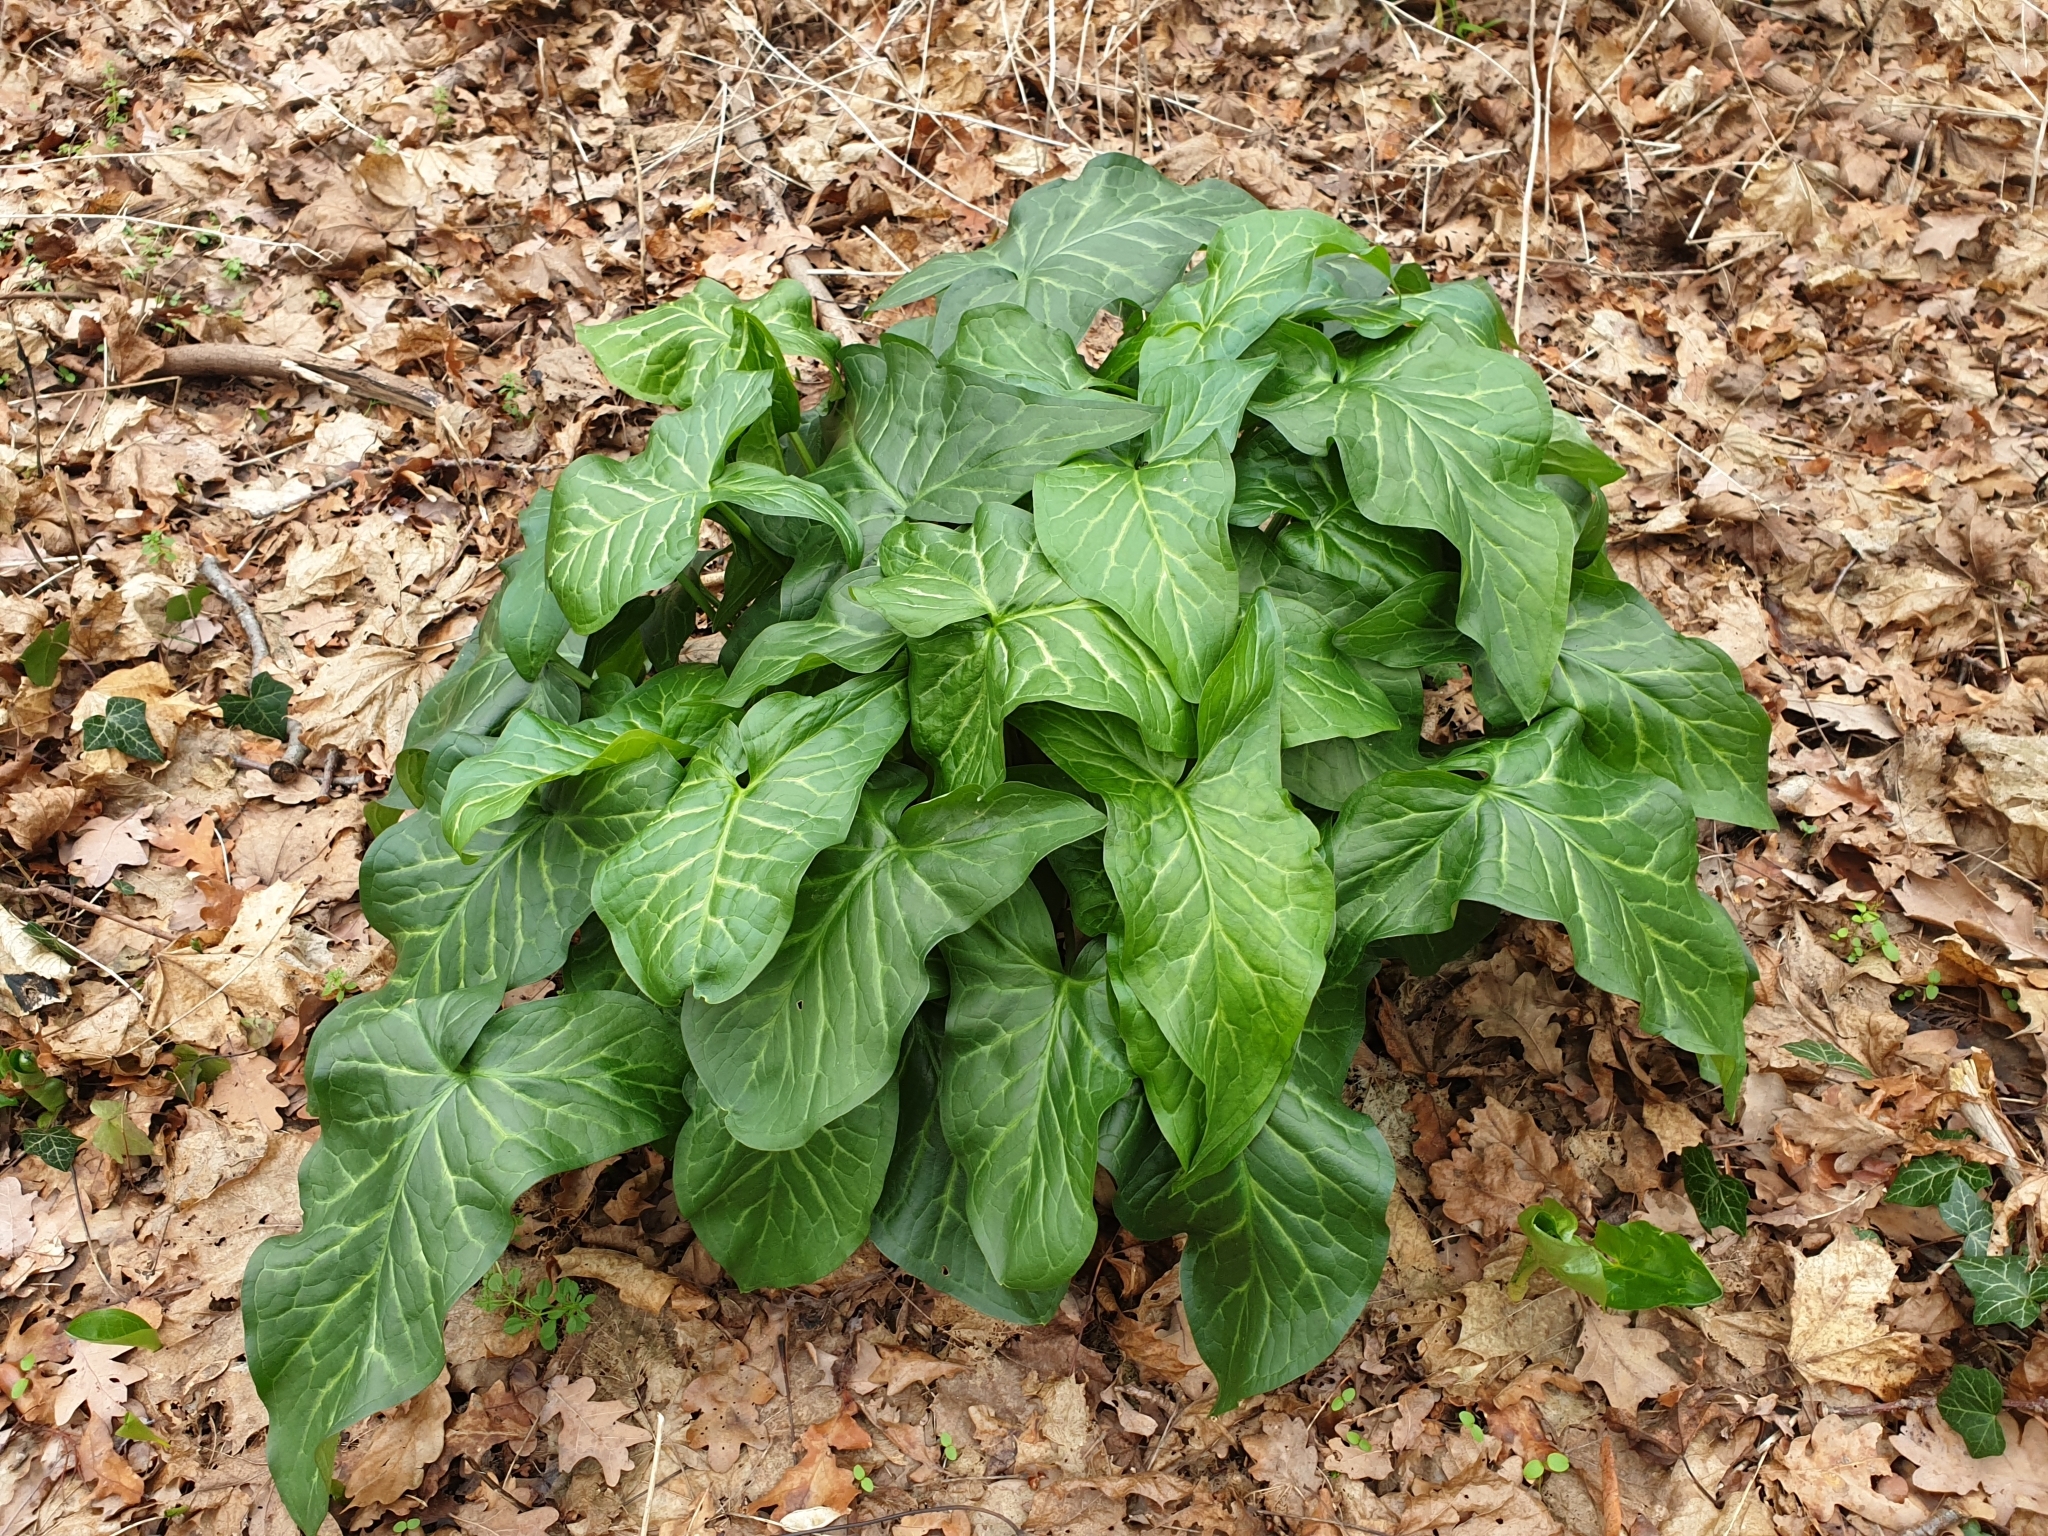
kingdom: Plantae
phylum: Tracheophyta
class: Liliopsida
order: Alismatales
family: Araceae
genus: Arum
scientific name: Arum italicum
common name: Italian lords-and-ladies
